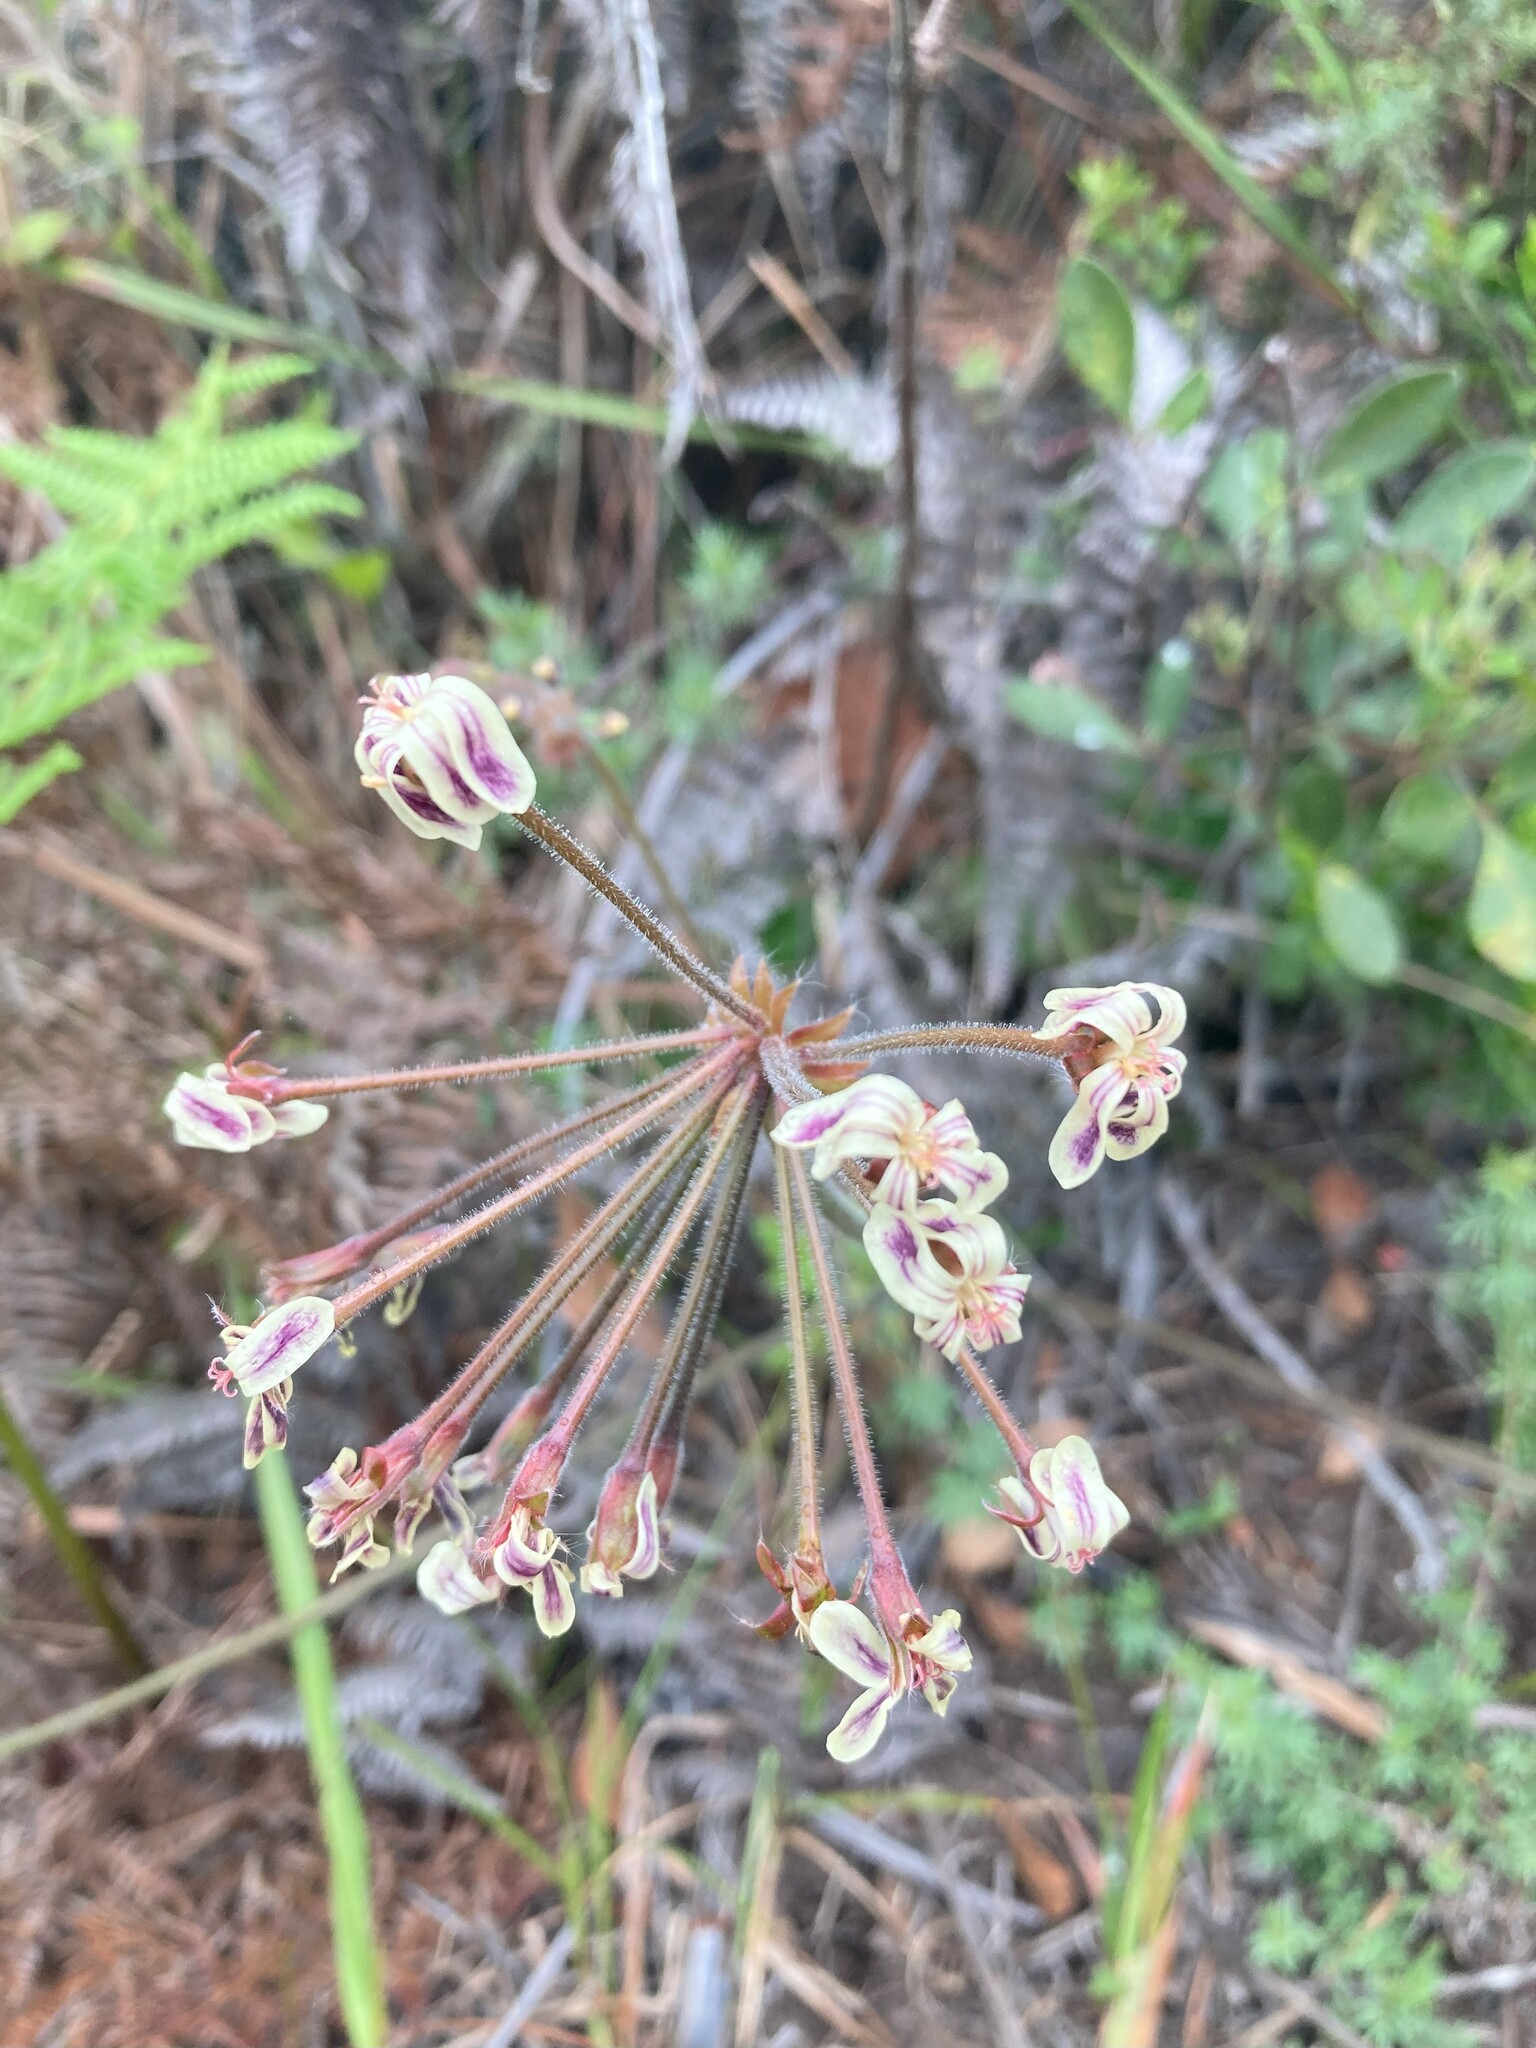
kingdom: Plantae
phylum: Tracheophyta
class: Magnoliopsida
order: Geraniales
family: Geraniaceae
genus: Pelargonium
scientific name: Pelargonium lobatum
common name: Vine-leaf pelargonium
